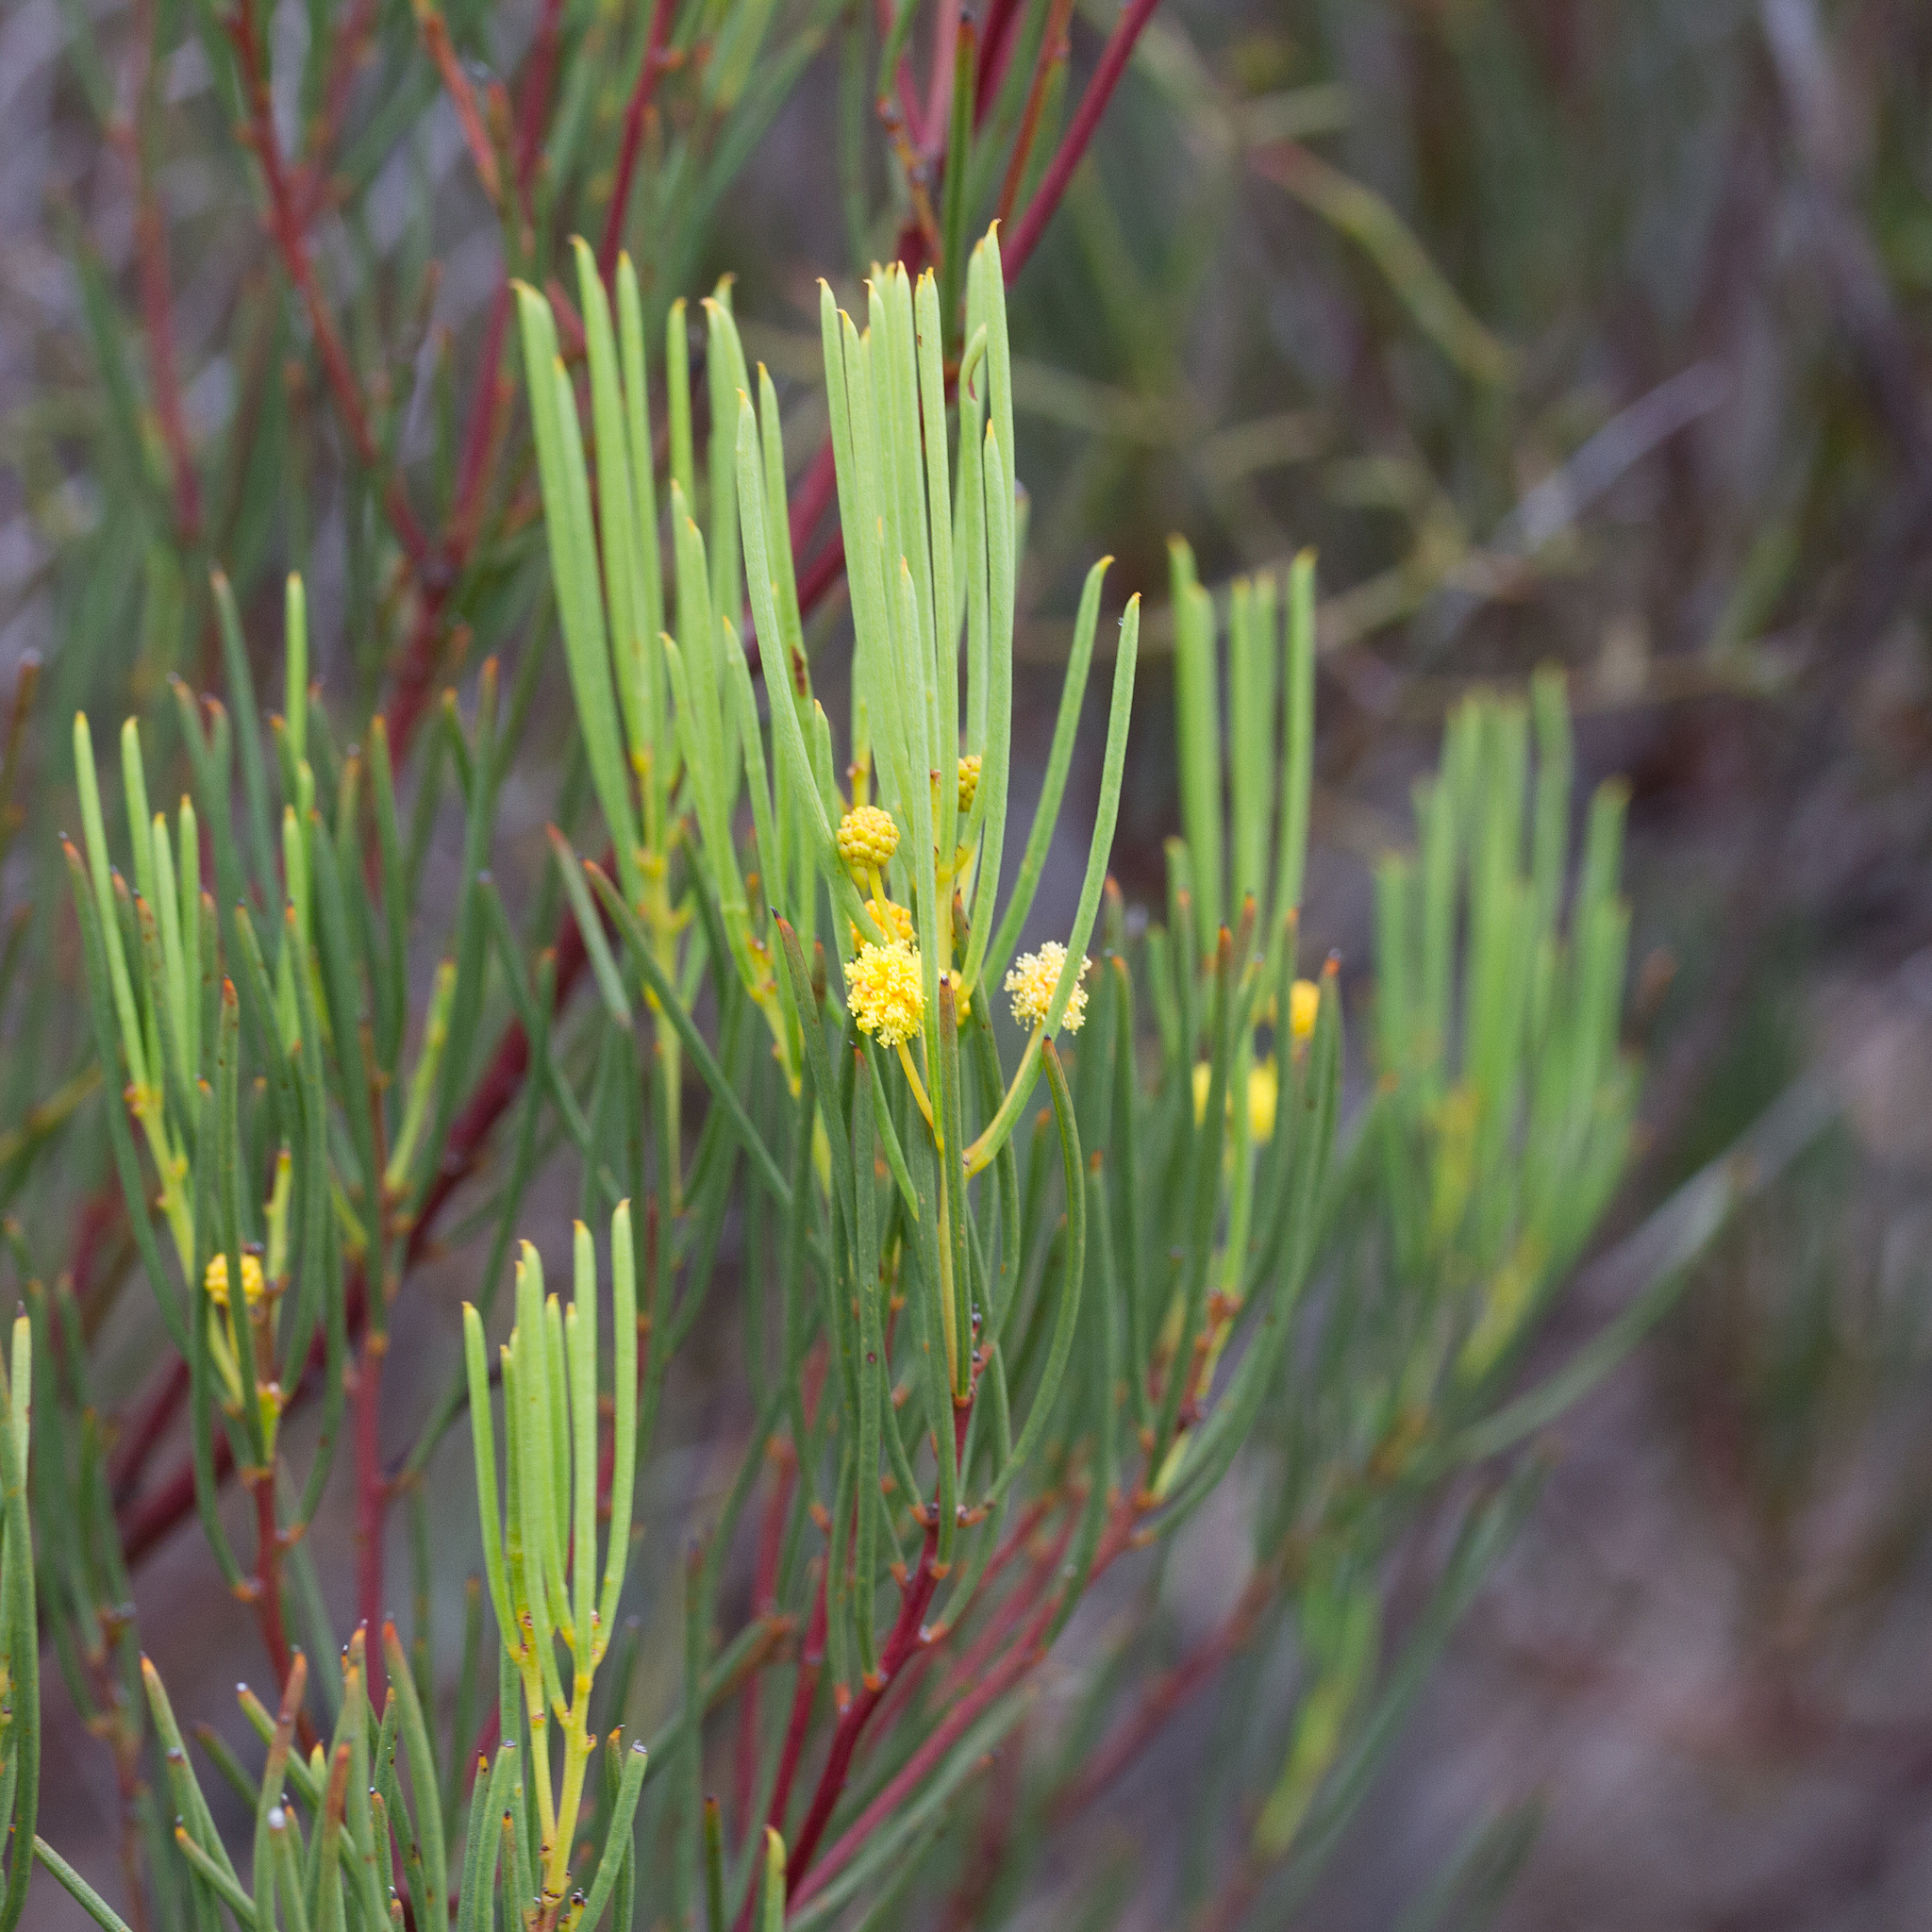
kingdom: Plantae
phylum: Tracheophyta
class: Magnoliopsida
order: Fabales
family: Fabaceae
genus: Acacia
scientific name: Acacia nematophylla
